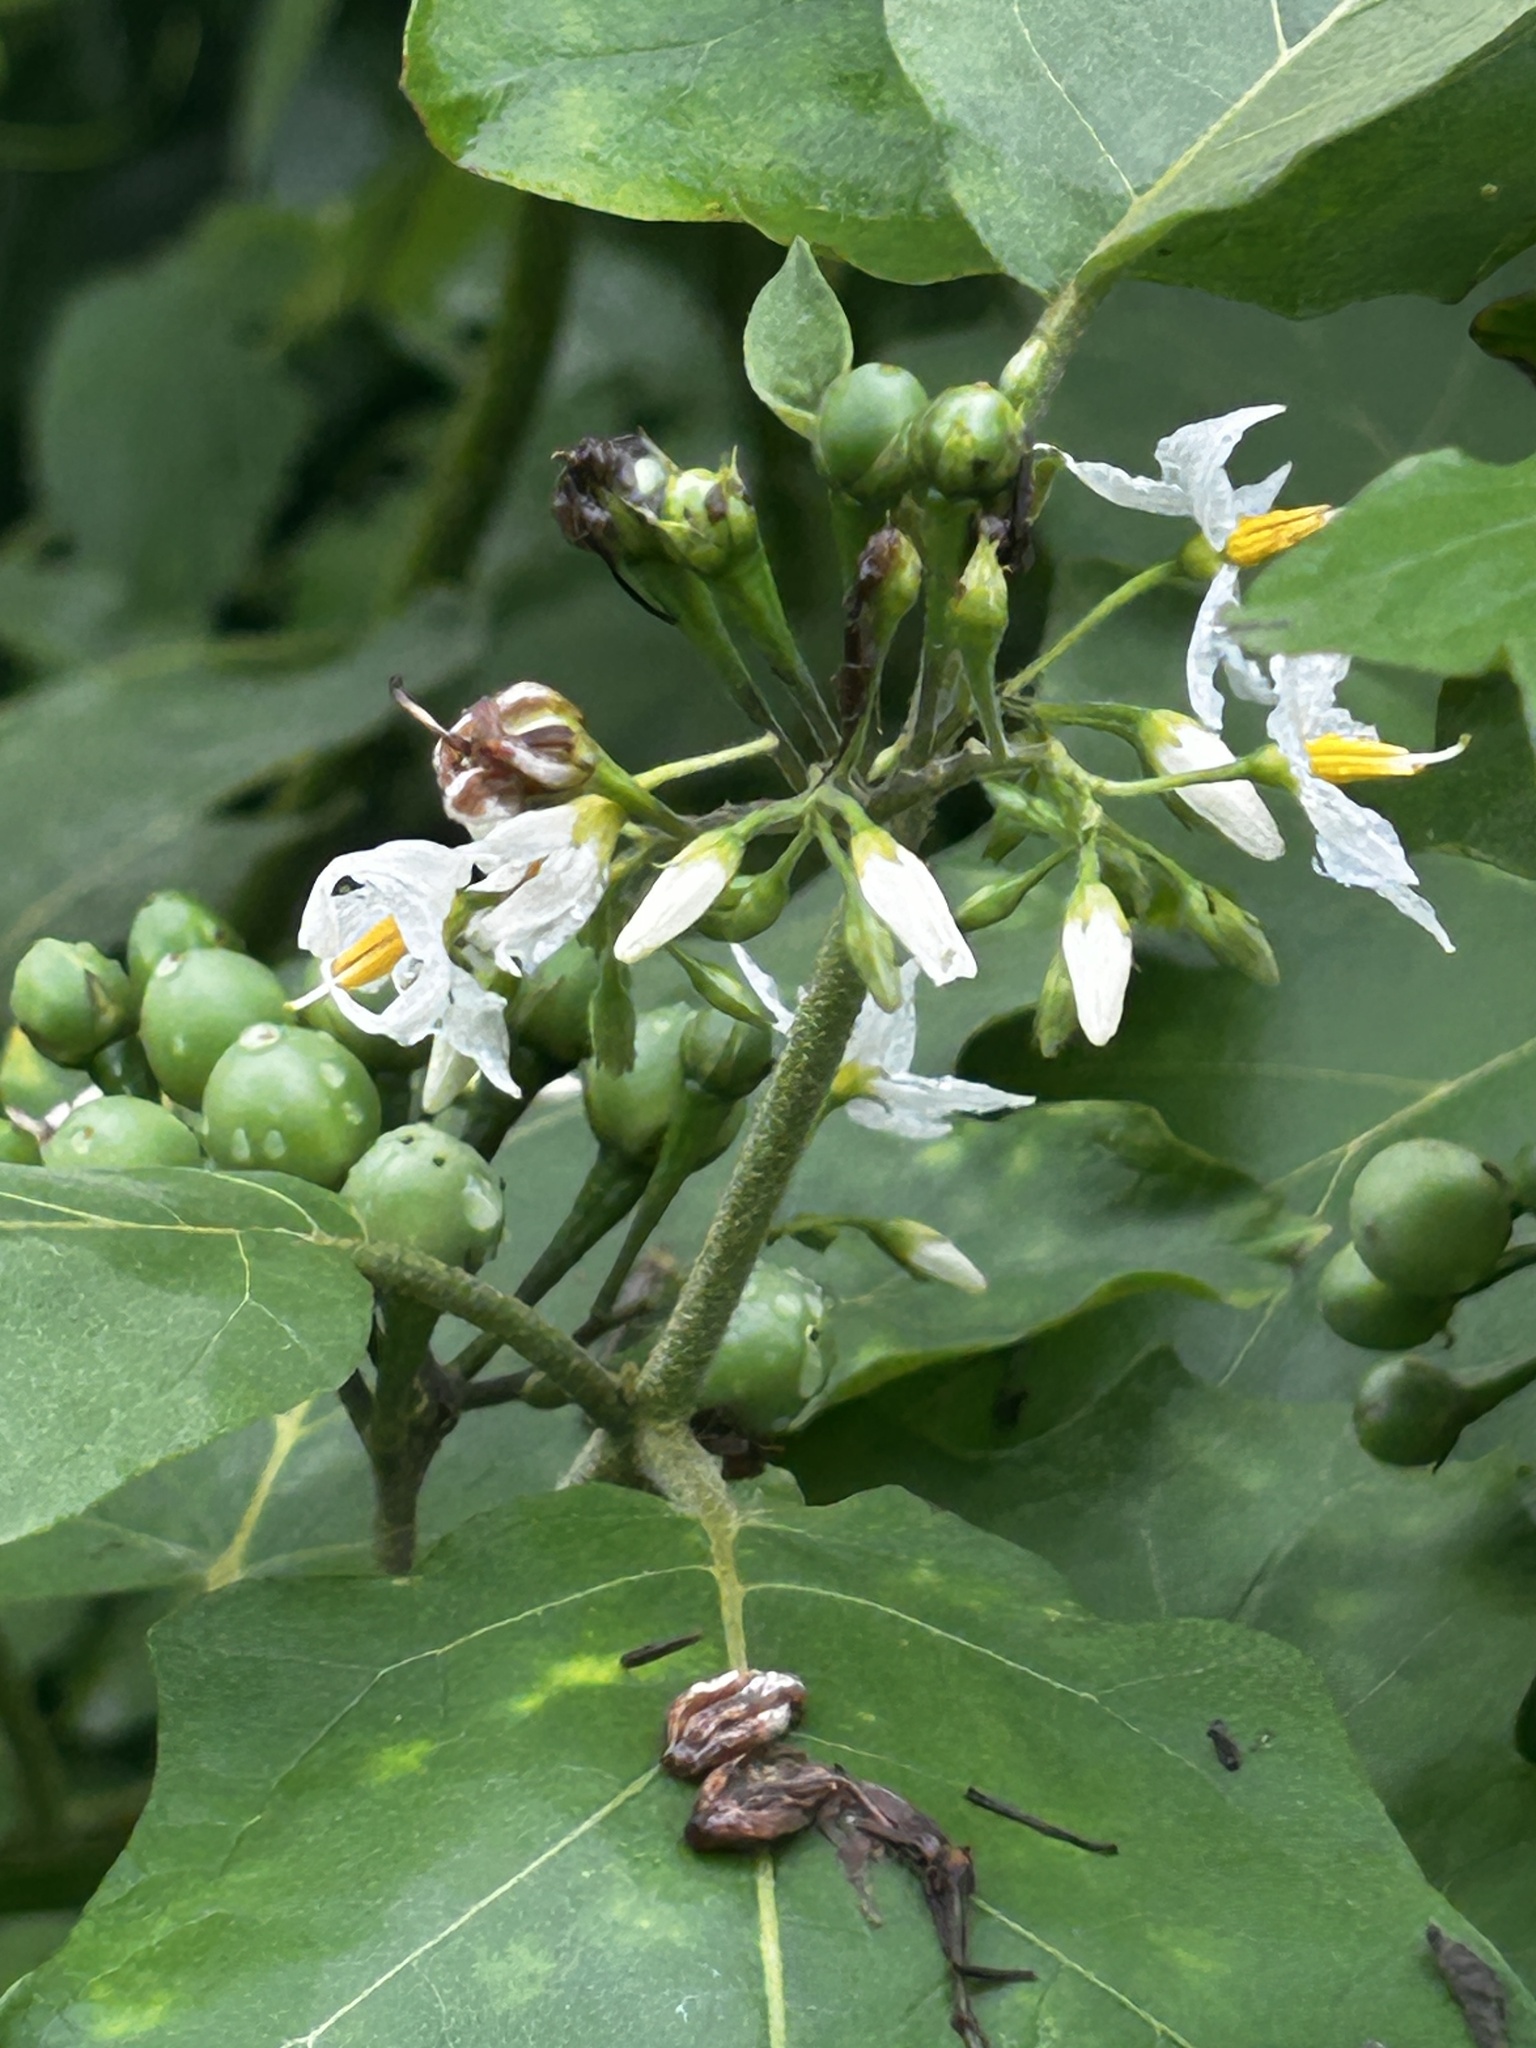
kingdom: Plantae
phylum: Tracheophyta
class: Magnoliopsida
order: Solanales
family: Solanaceae
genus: Solanum
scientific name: Solanum torvum
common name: Turkey berry
